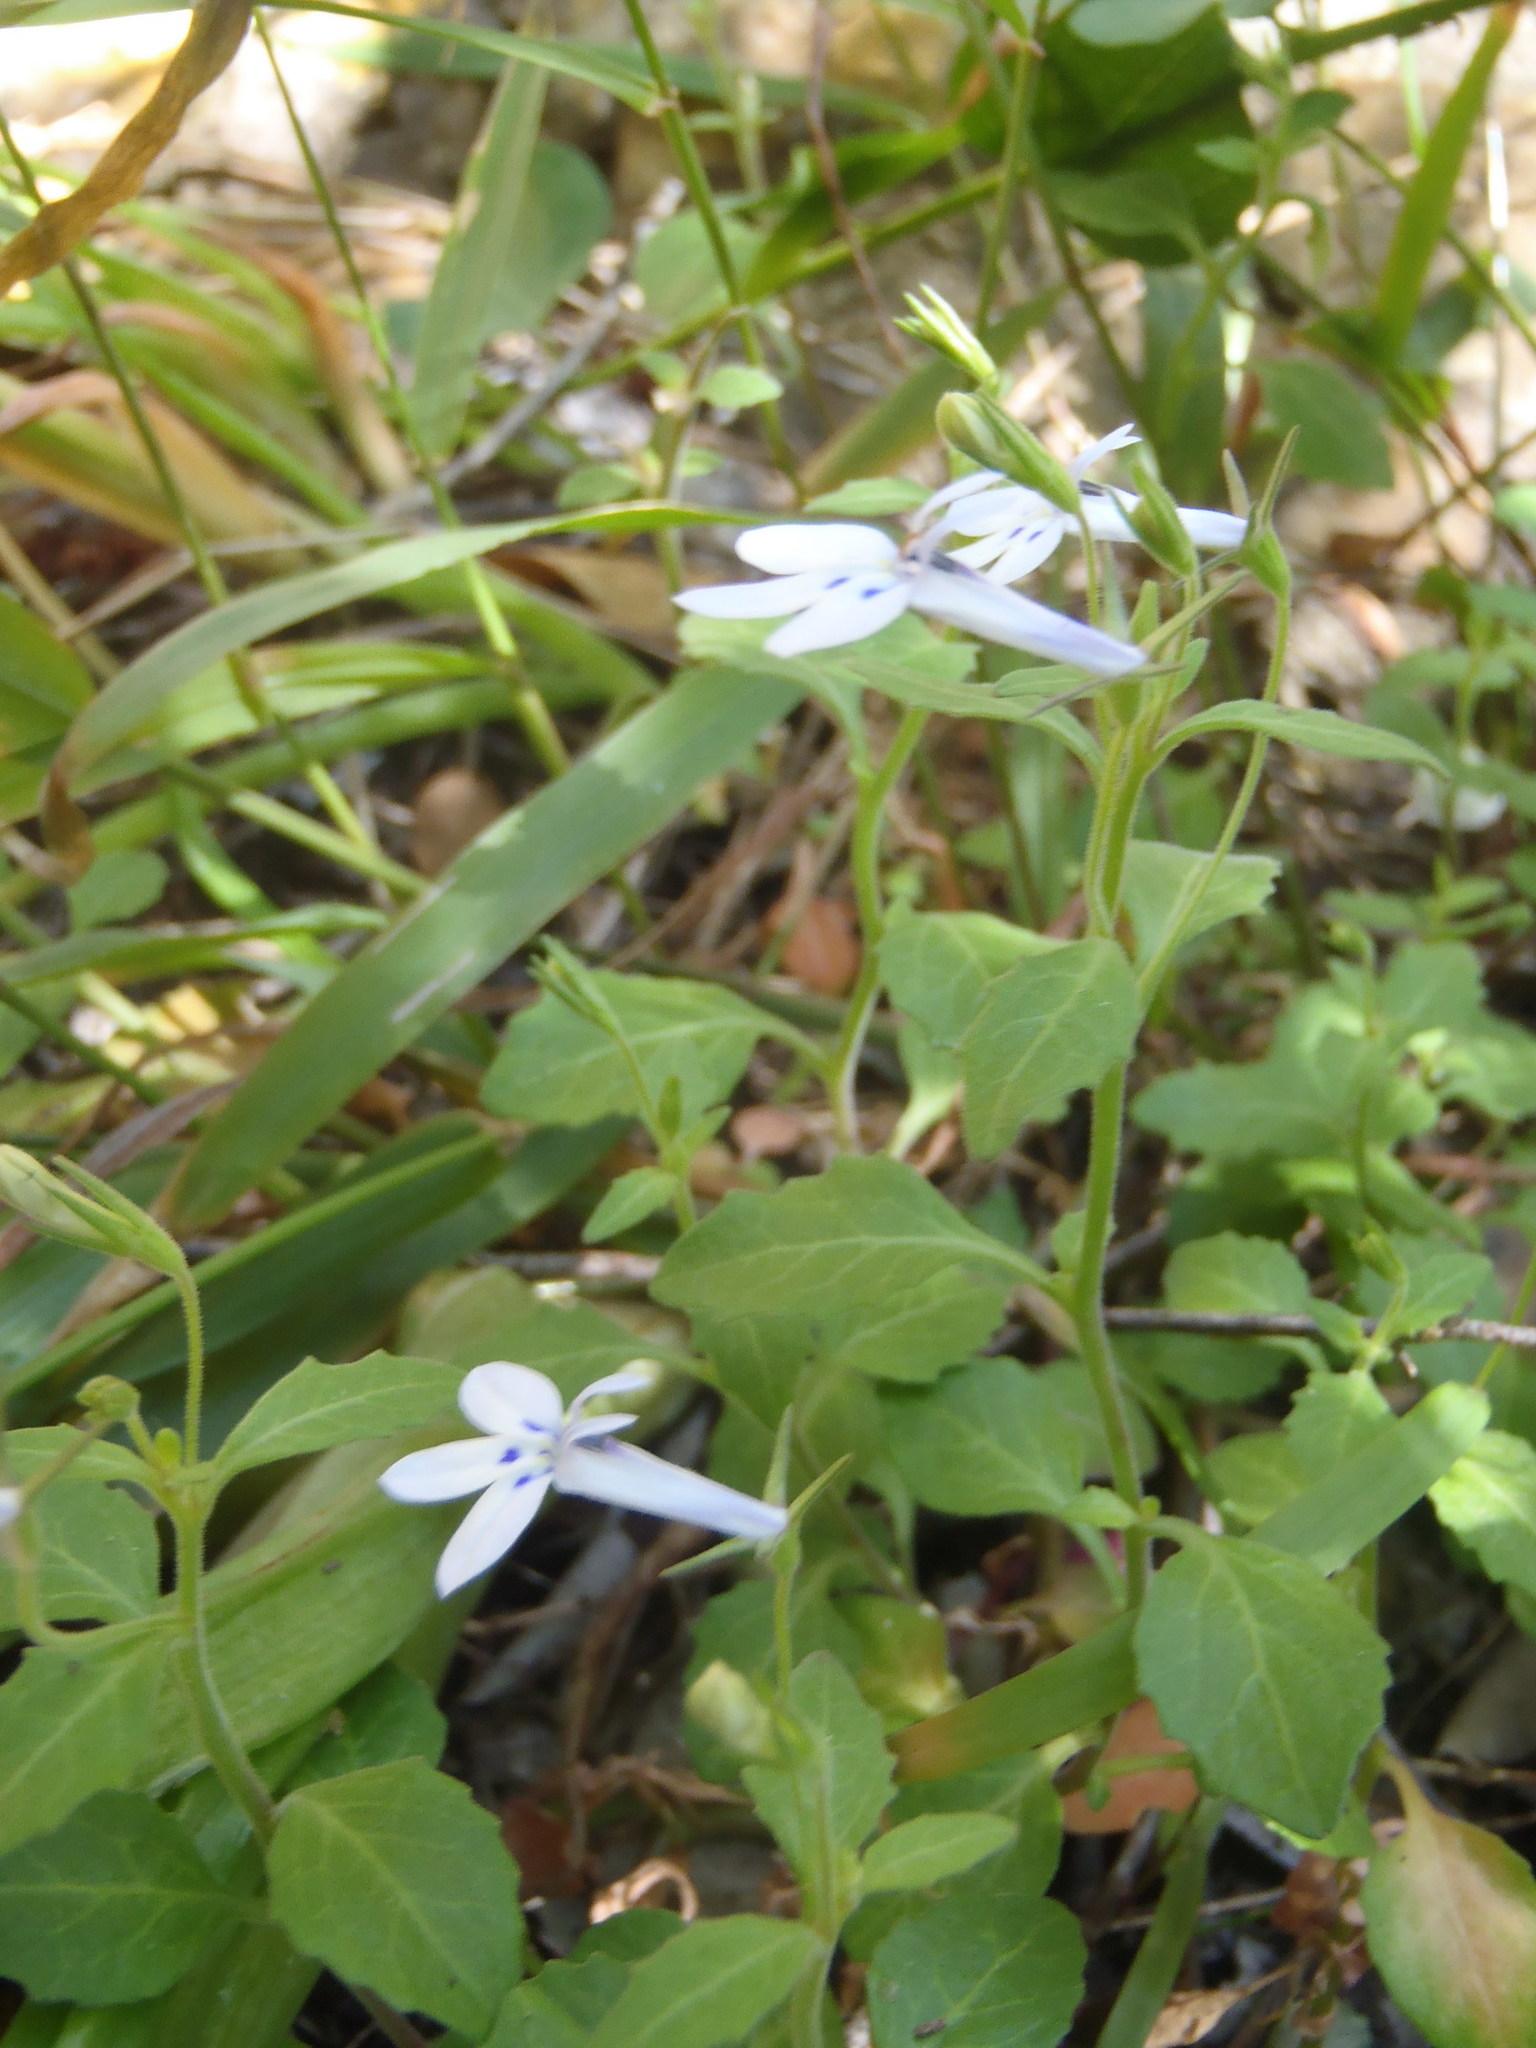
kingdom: Plantae
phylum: Tracheophyta
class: Magnoliopsida
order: Asterales
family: Campanulaceae
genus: Lobelia
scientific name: Lobelia pubescens
